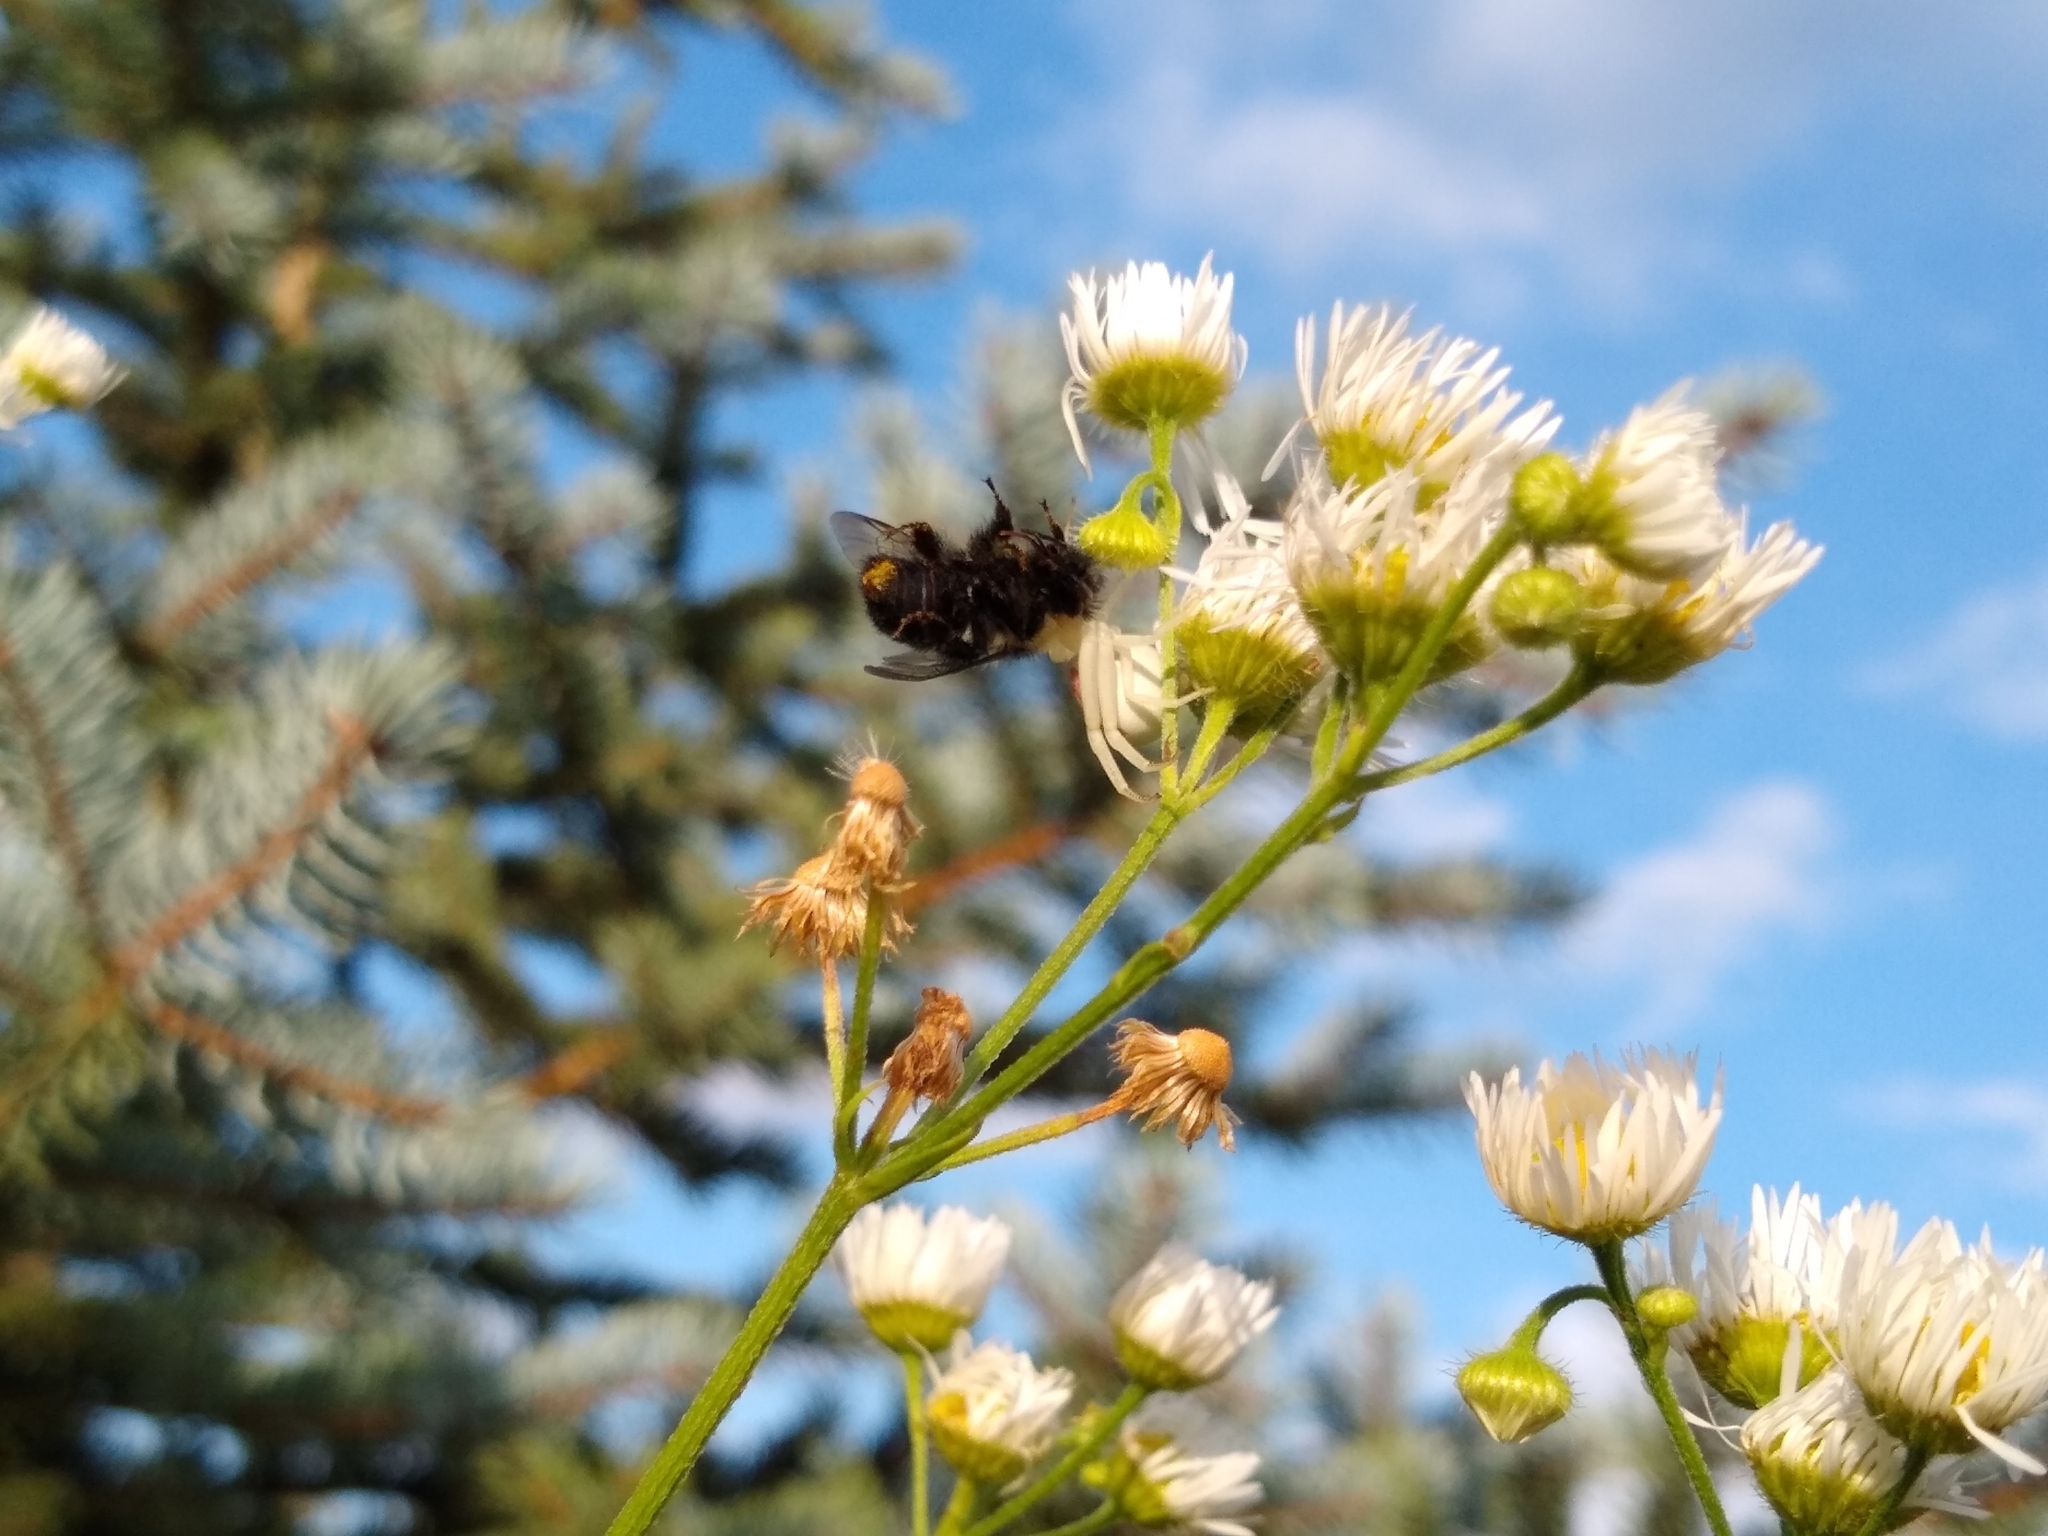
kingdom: Animalia
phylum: Arthropoda
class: Arachnida
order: Araneae
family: Thomisidae
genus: Misumena
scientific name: Misumena vatia
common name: Goldenrod crab spider
